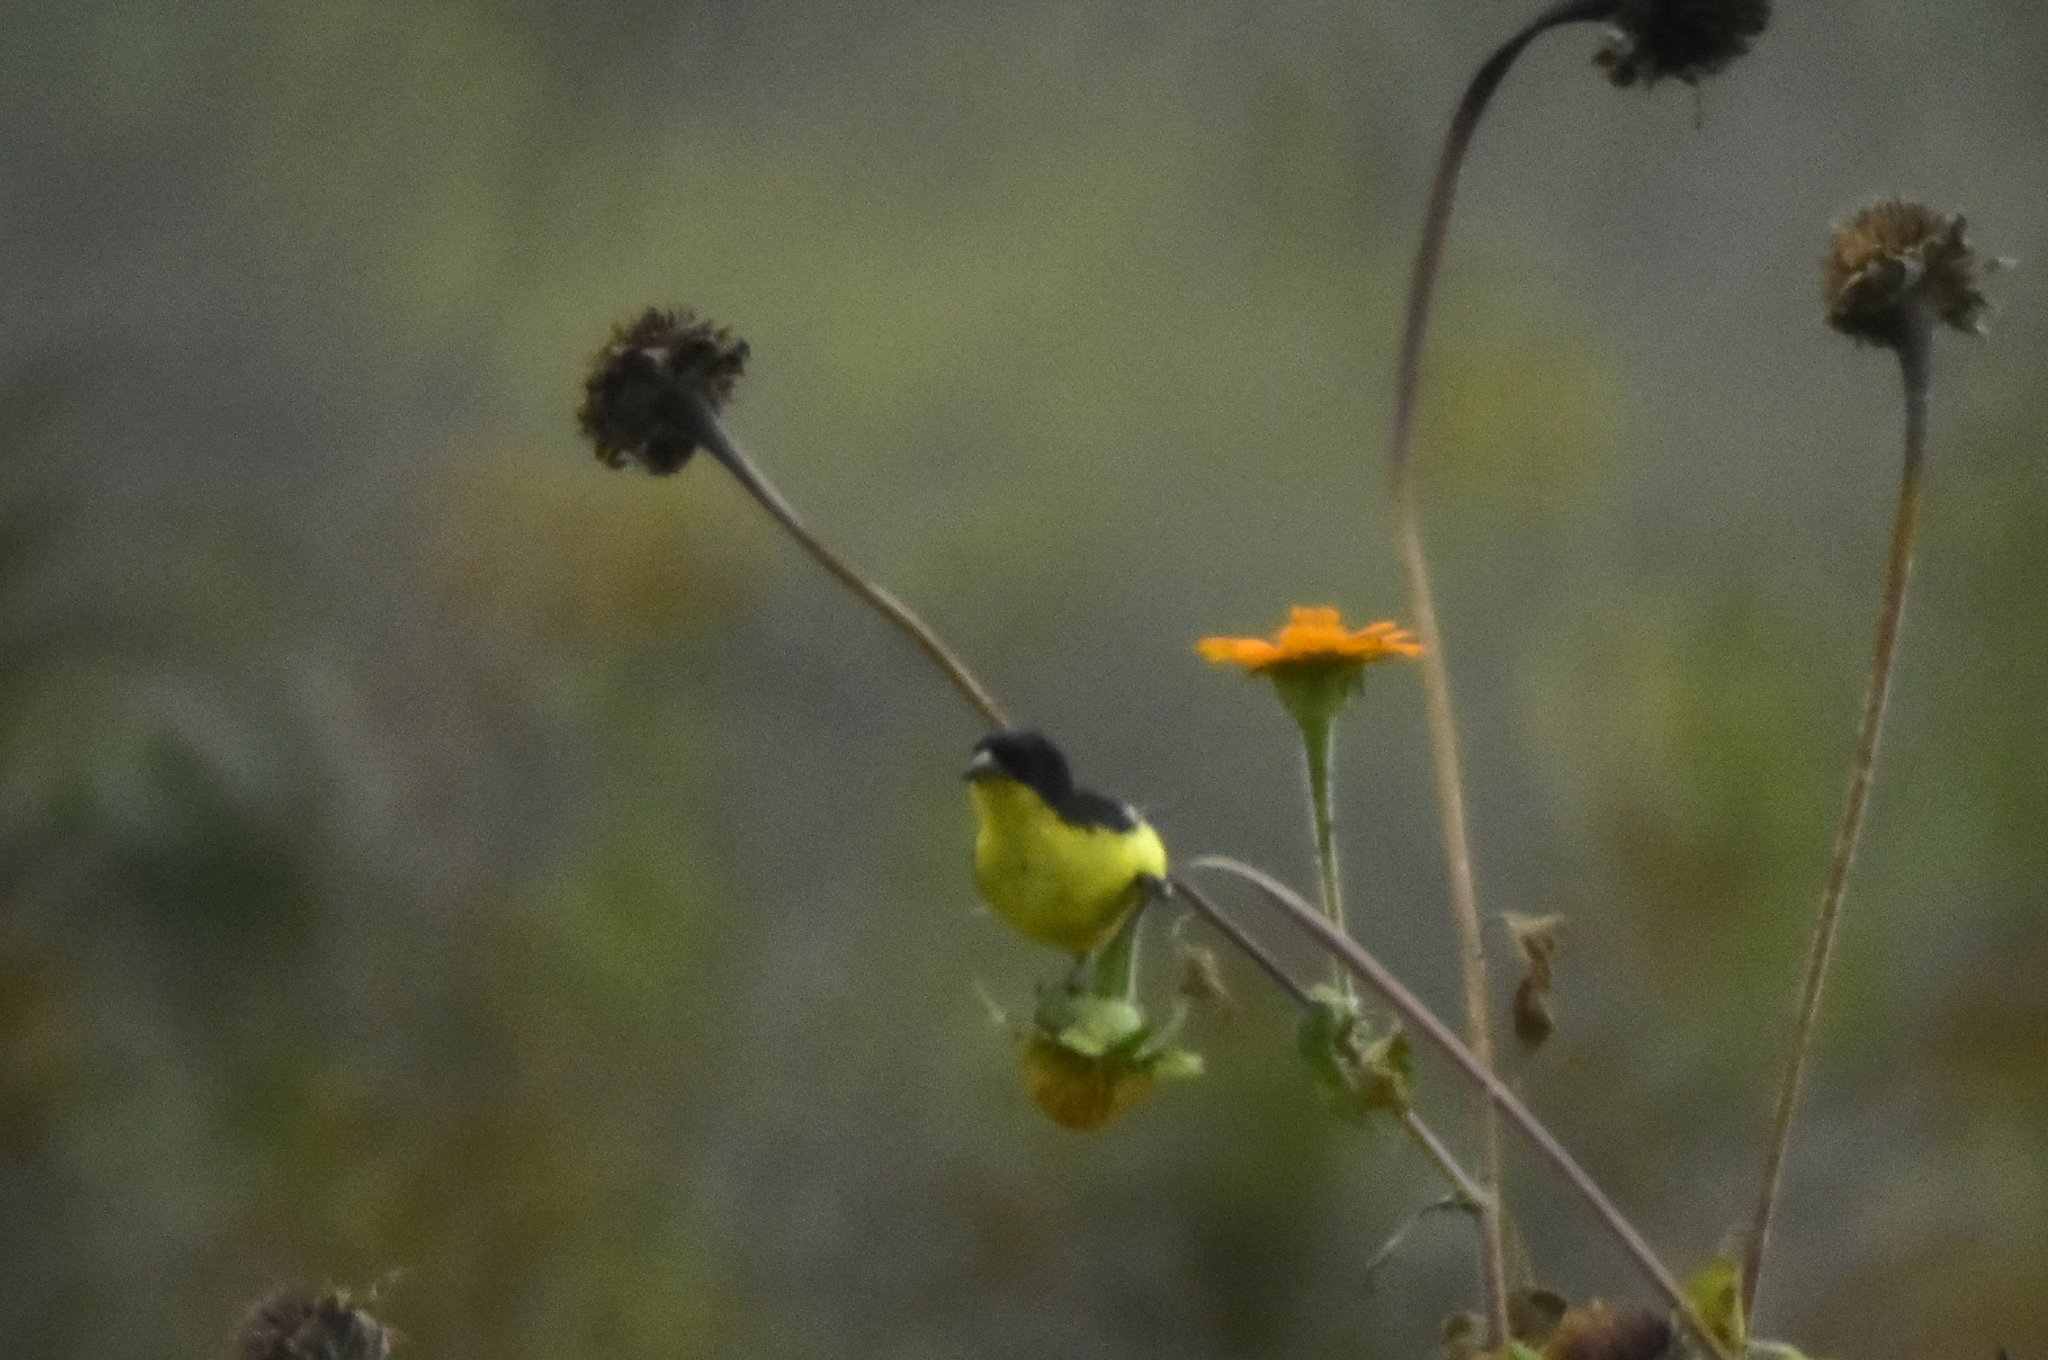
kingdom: Animalia
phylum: Chordata
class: Aves
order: Passeriformes
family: Fringillidae
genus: Spinus
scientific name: Spinus psaltria
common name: Lesser goldfinch
